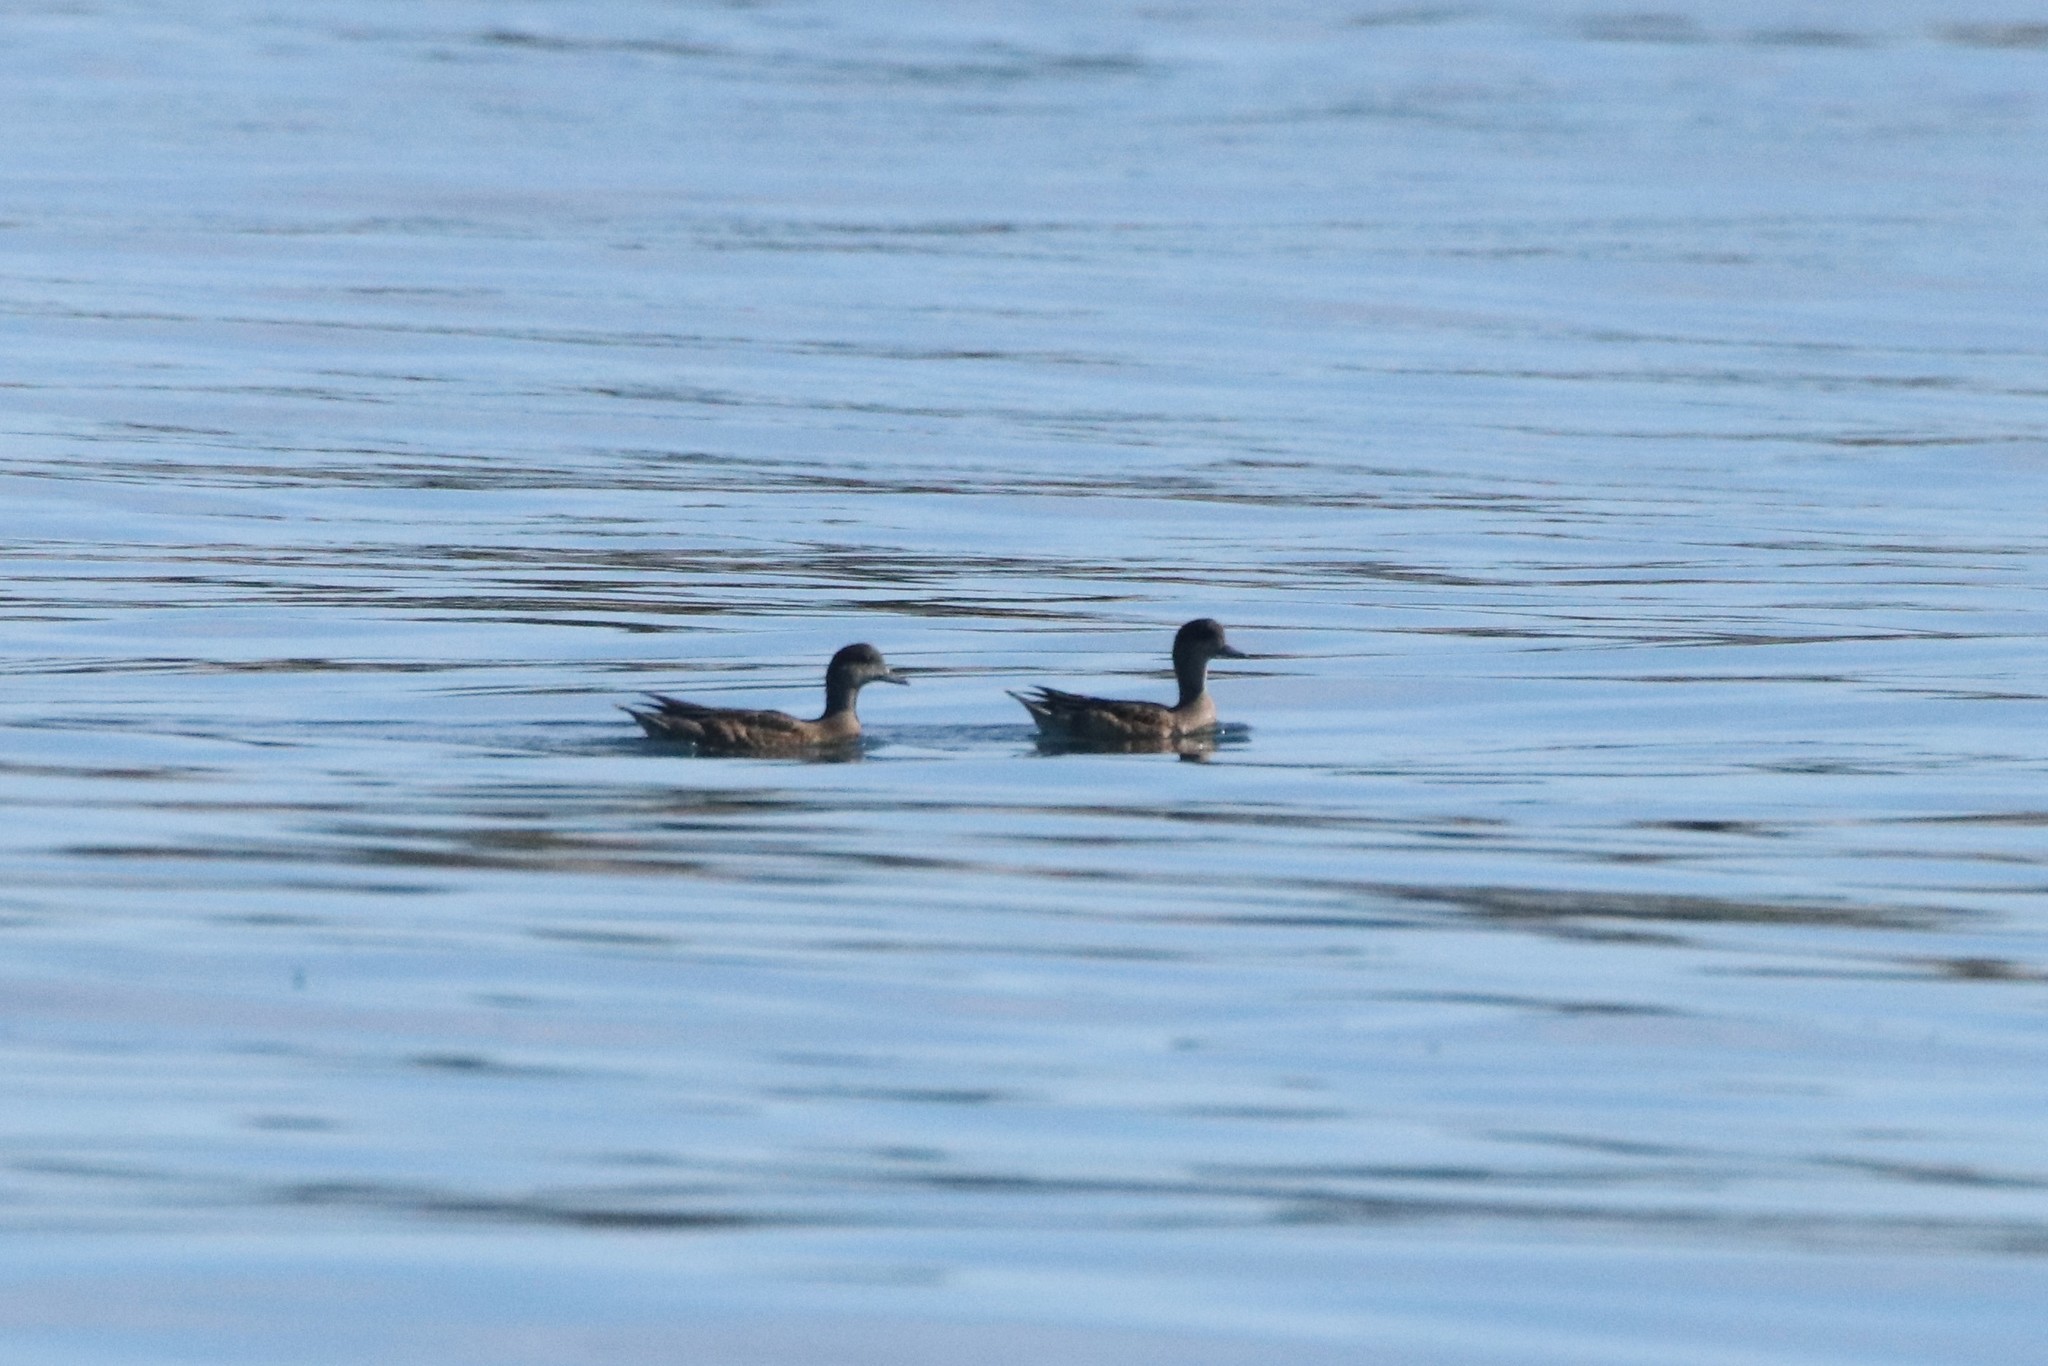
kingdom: Animalia
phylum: Chordata
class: Aves
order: Anseriformes
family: Anatidae
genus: Mareca
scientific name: Mareca americana
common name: American wigeon
